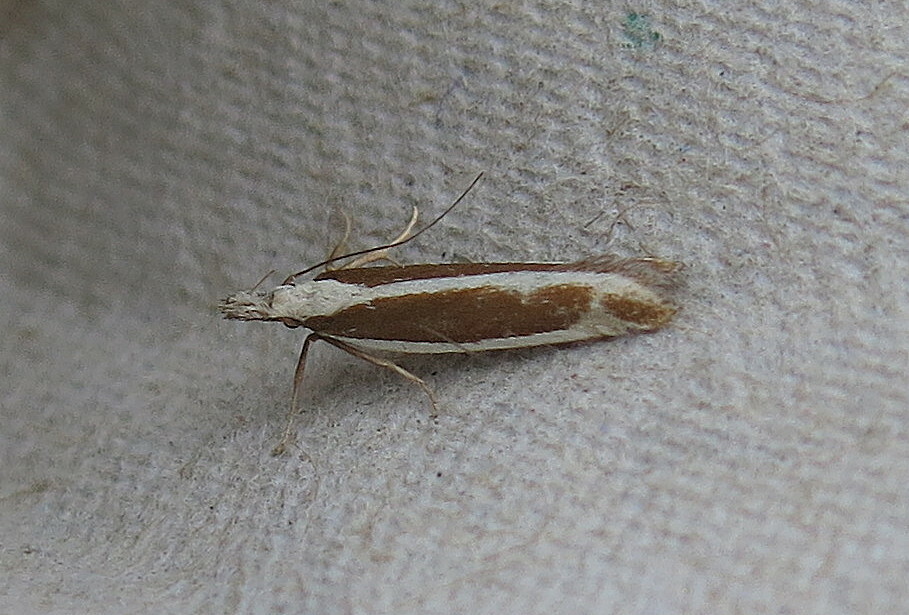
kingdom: Animalia
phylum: Arthropoda
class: Insecta
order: Lepidoptera
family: Gelechiidae
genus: Dichomeris
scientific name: Dichomeris marginella
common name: Juniper webworm
